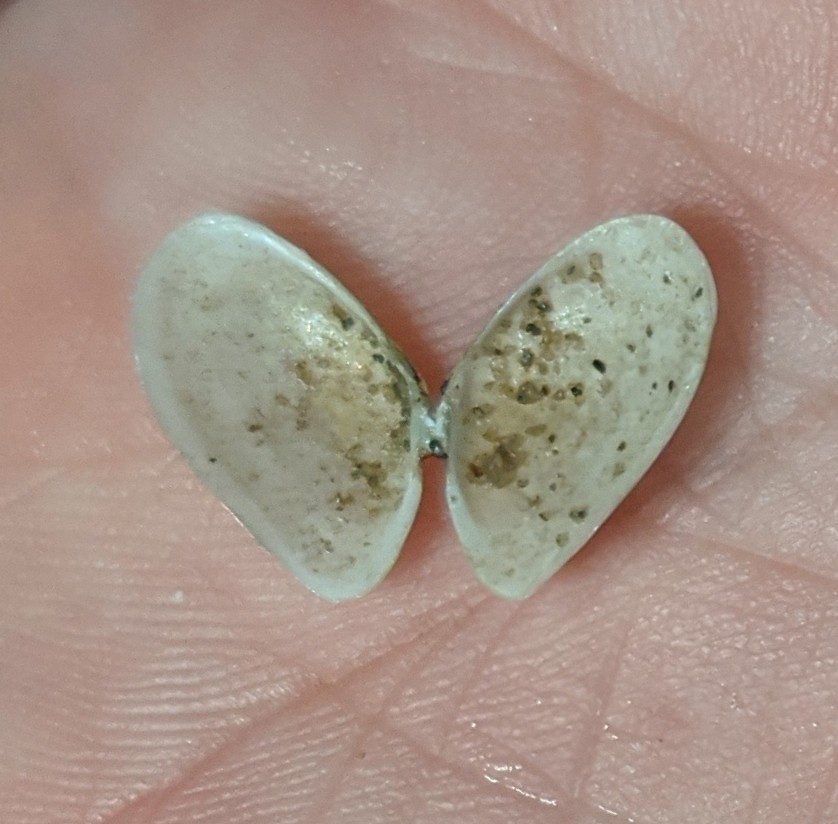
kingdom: Animalia
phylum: Mollusca
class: Bivalvia
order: Cardiida
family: Tellinidae
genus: Ameritella
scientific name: Ameritella agilis
